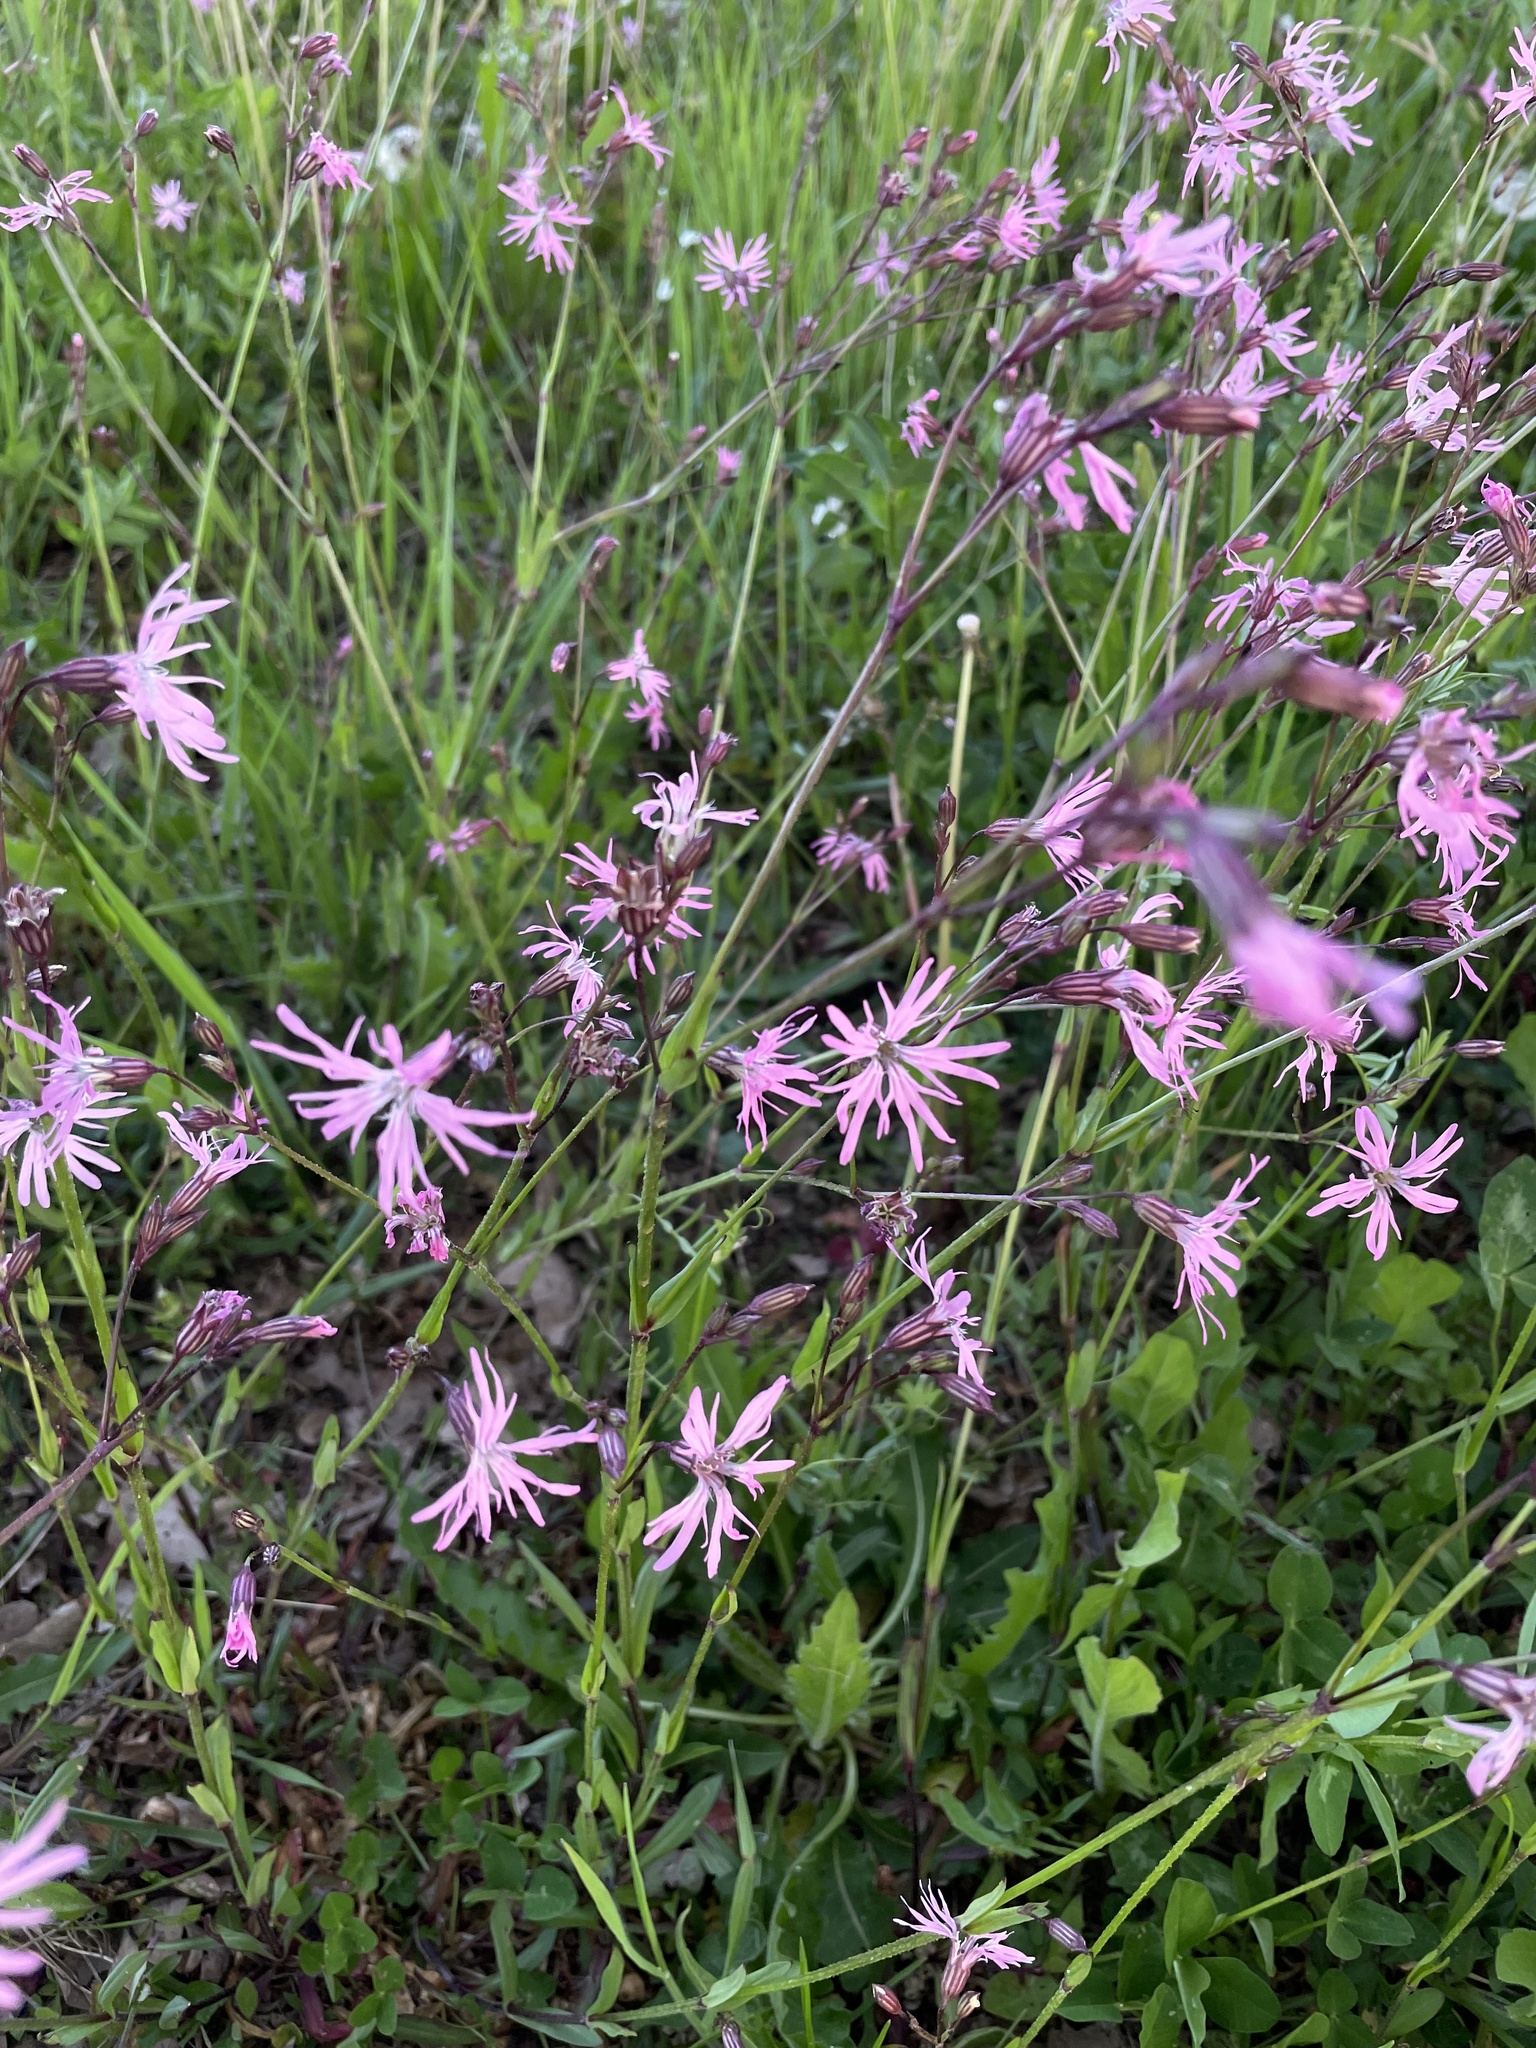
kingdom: Plantae
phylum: Tracheophyta
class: Magnoliopsida
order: Caryophyllales
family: Caryophyllaceae
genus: Silene
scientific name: Silene flos-cuculi
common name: Ragged-robin
